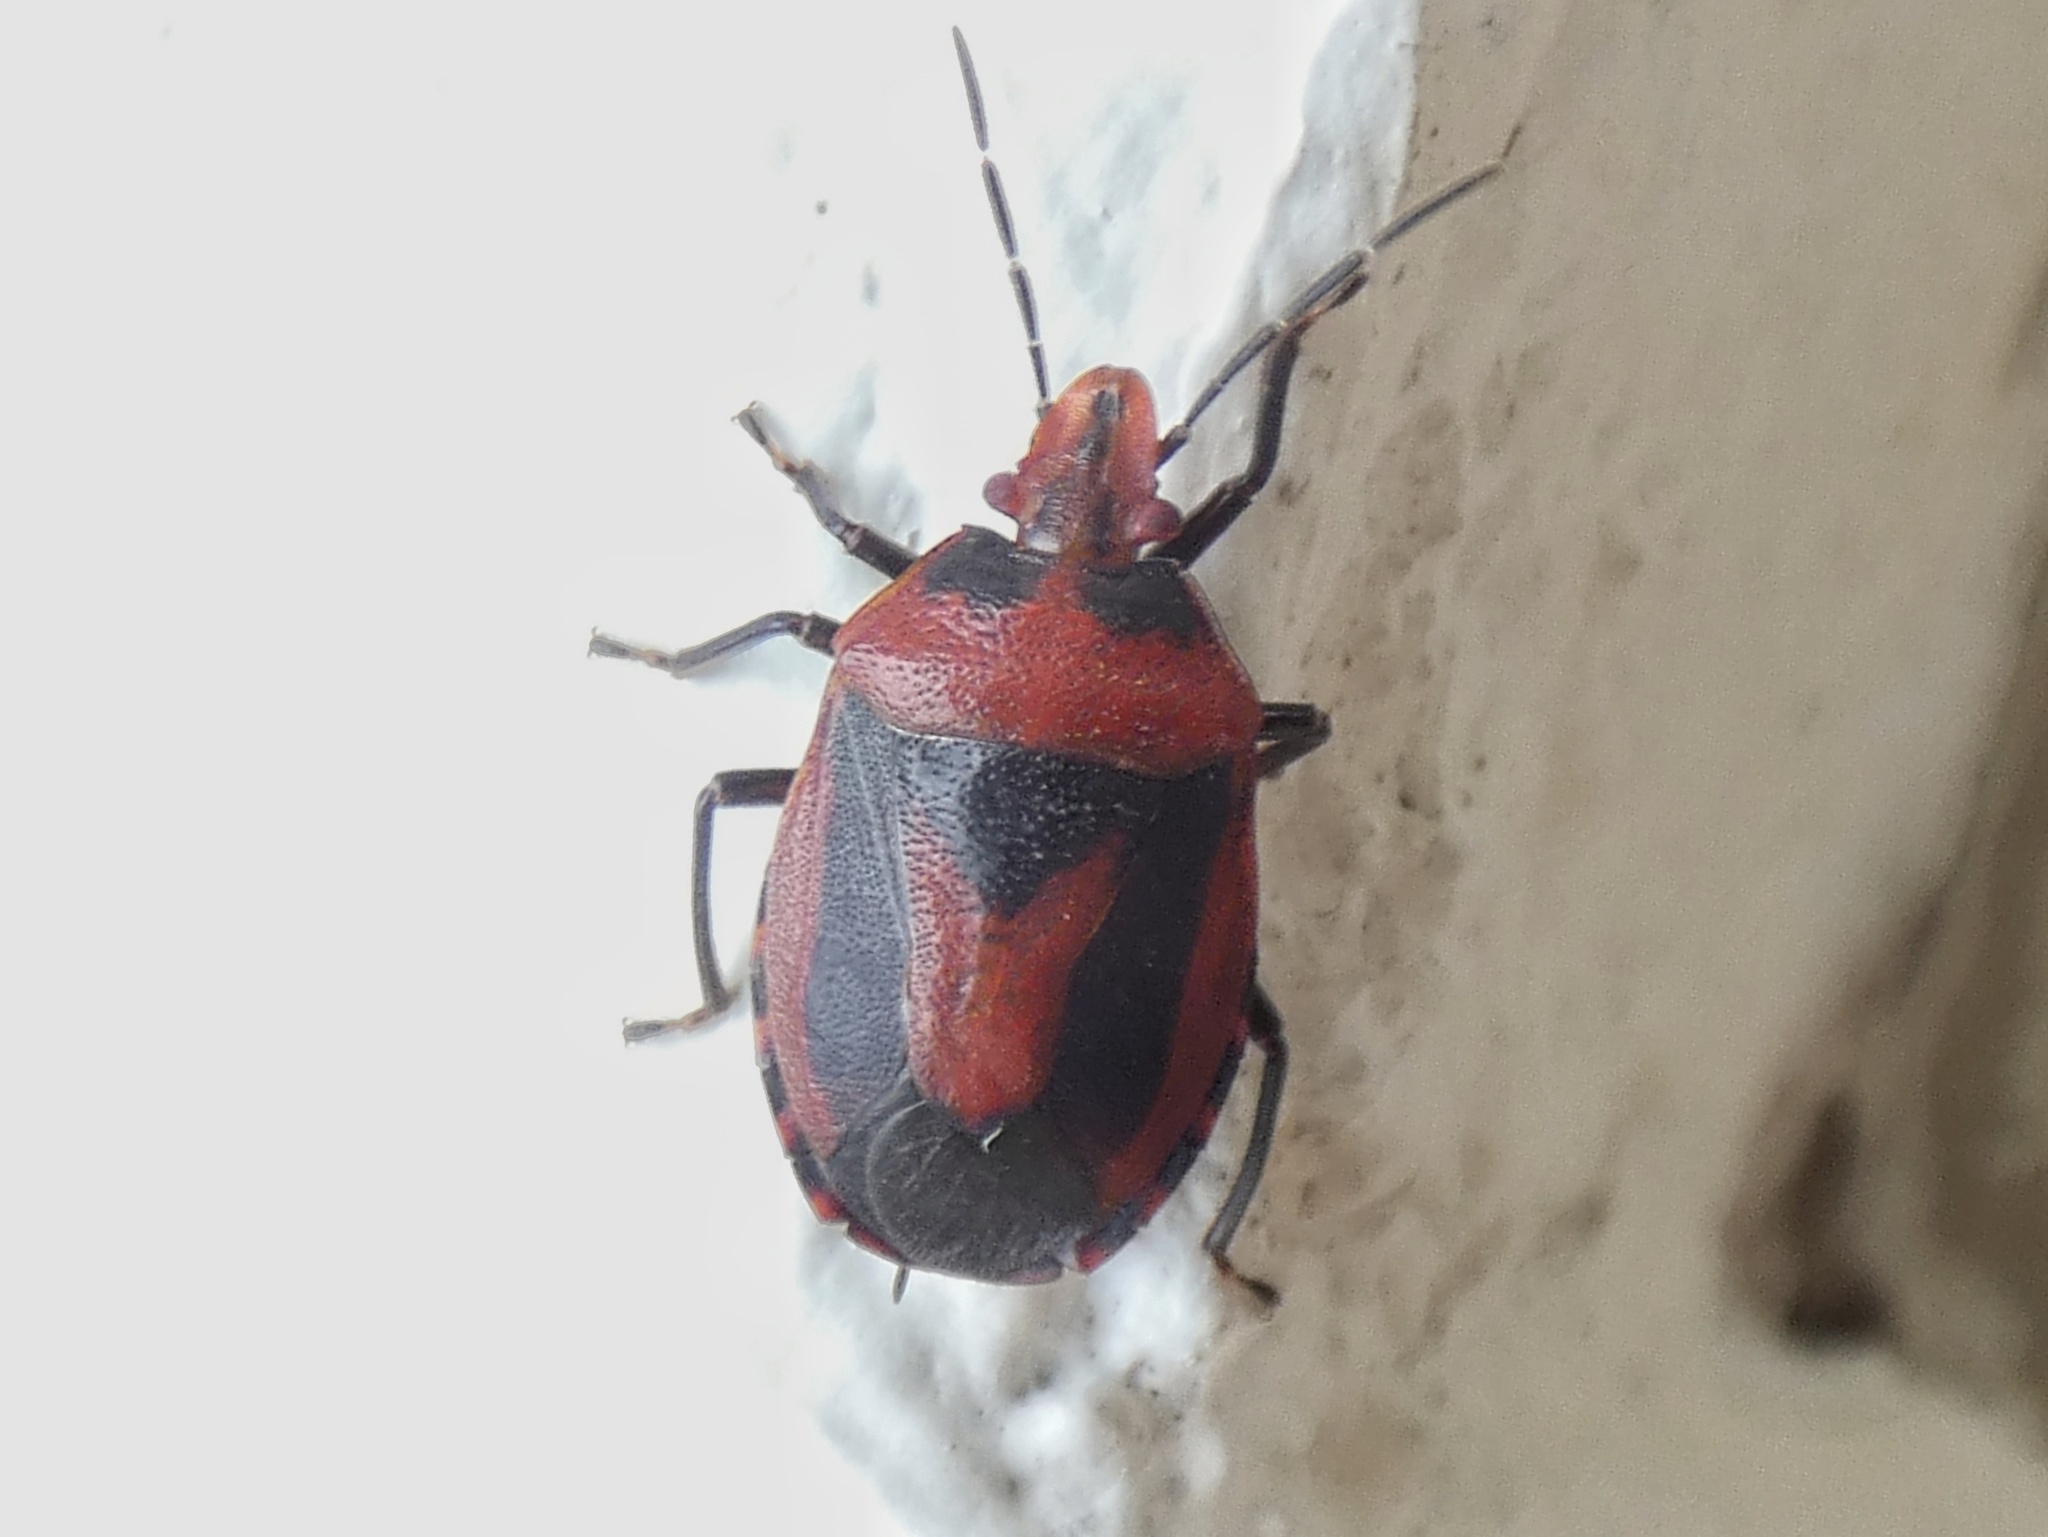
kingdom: Animalia
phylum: Arthropoda
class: Insecta
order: Hemiptera
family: Pentatomidae
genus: Mecistorhinus
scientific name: Mecistorhinus
